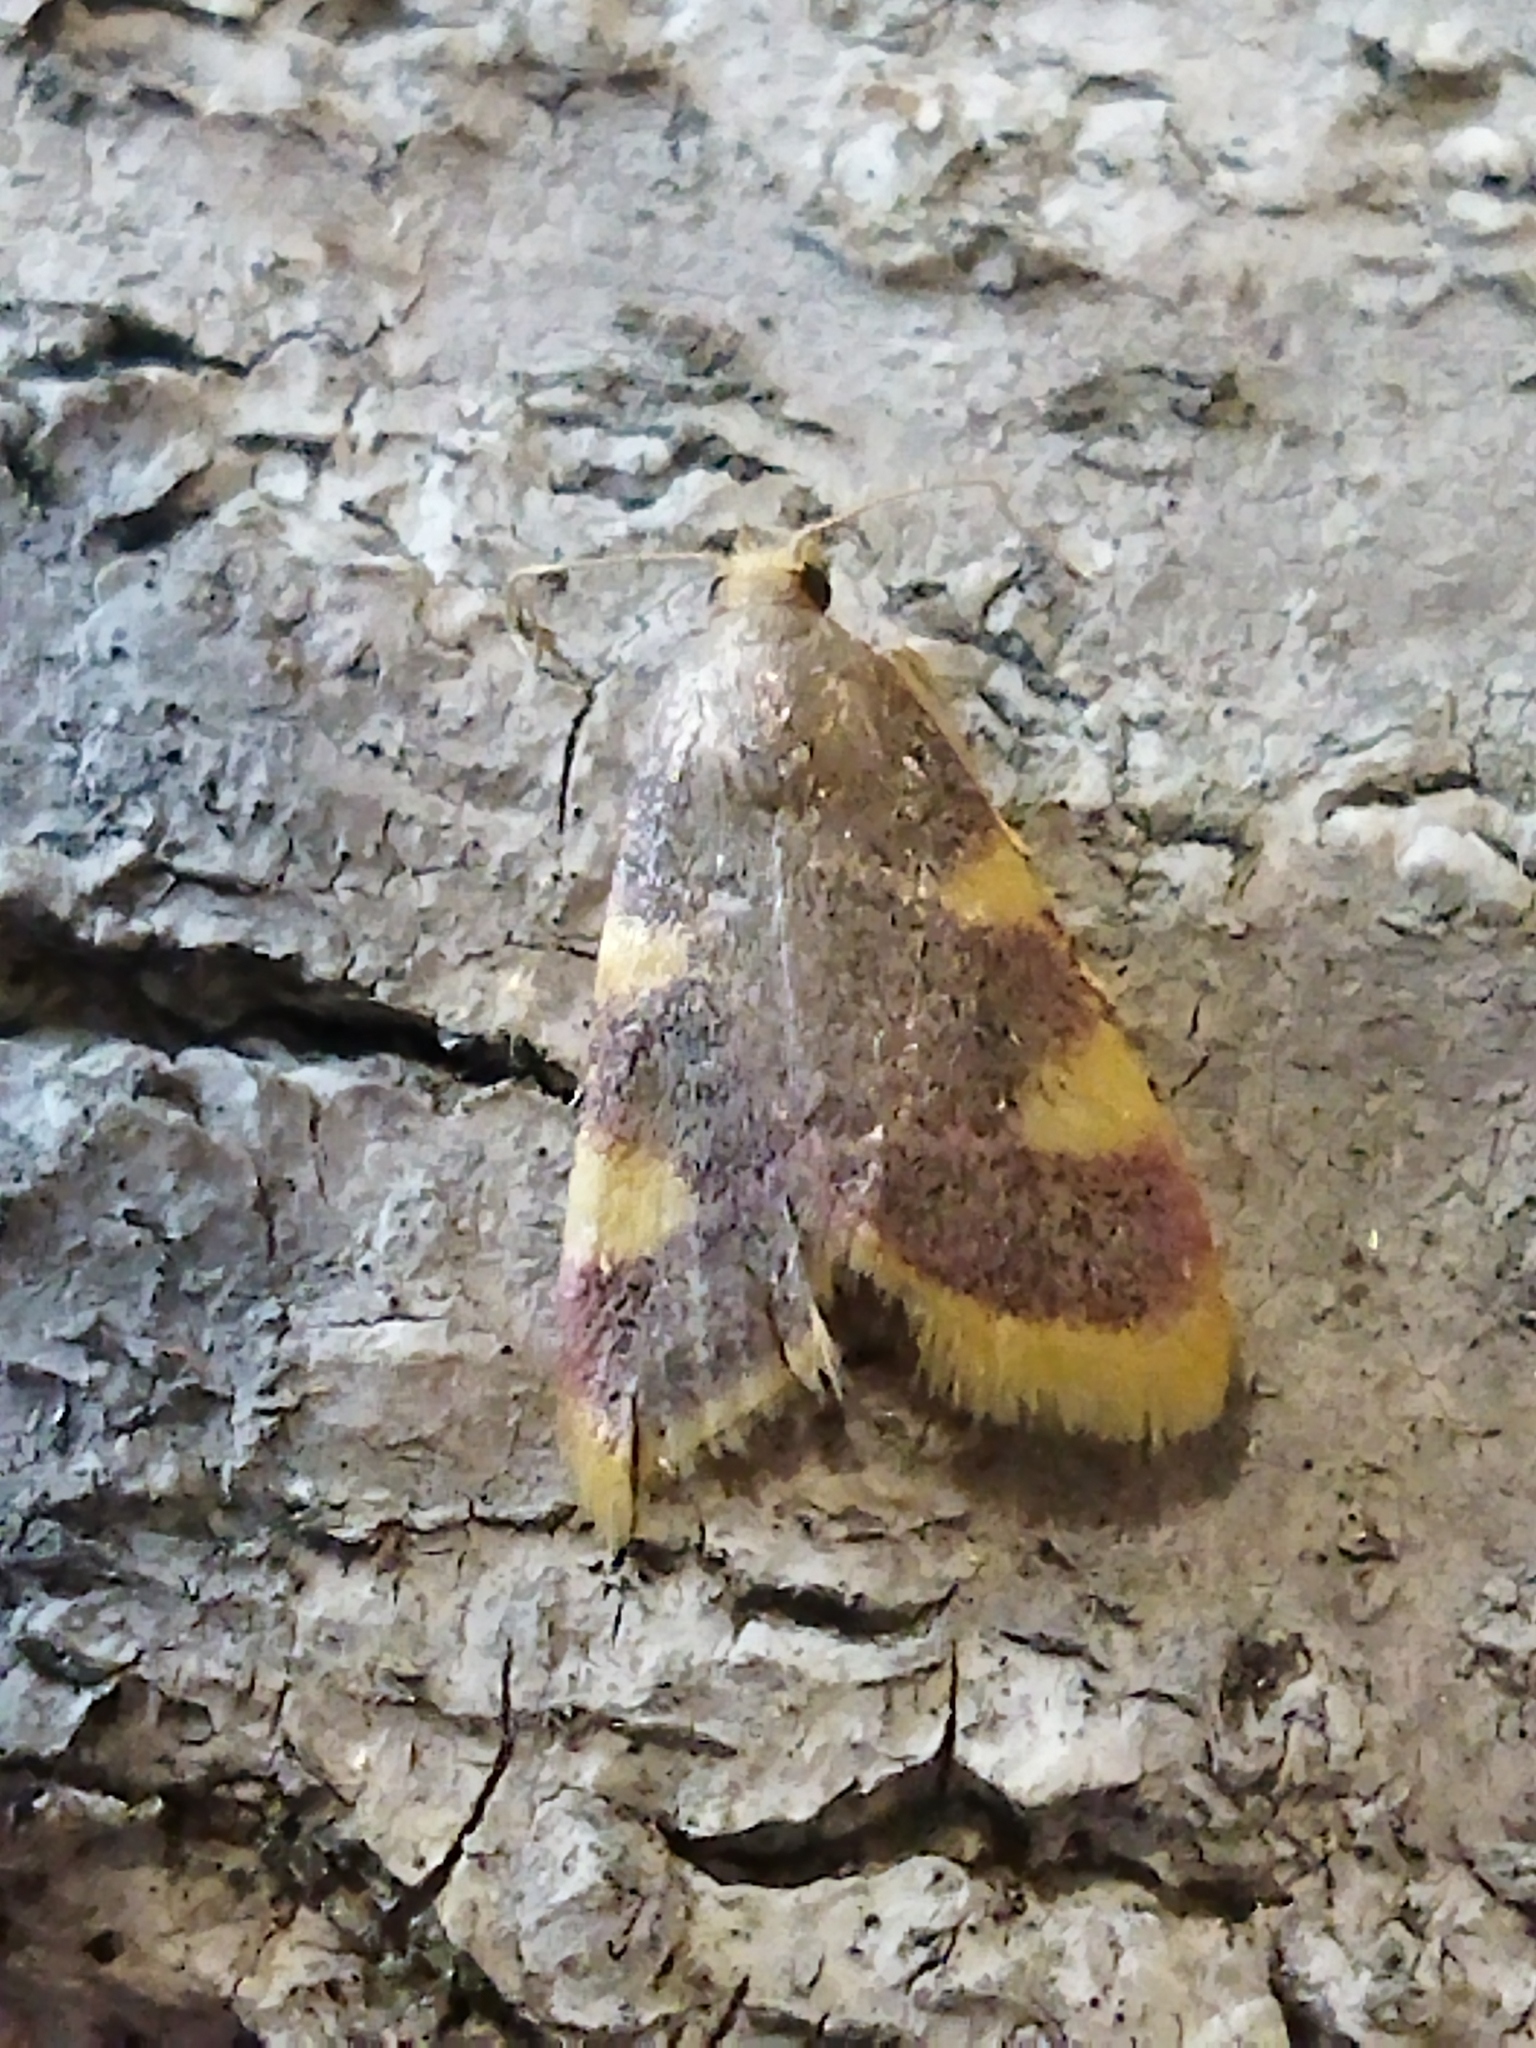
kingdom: Animalia
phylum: Arthropoda
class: Insecta
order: Lepidoptera
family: Pyralidae
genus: Hypsopygia
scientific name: Hypsopygia costalis
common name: Gold triangle
